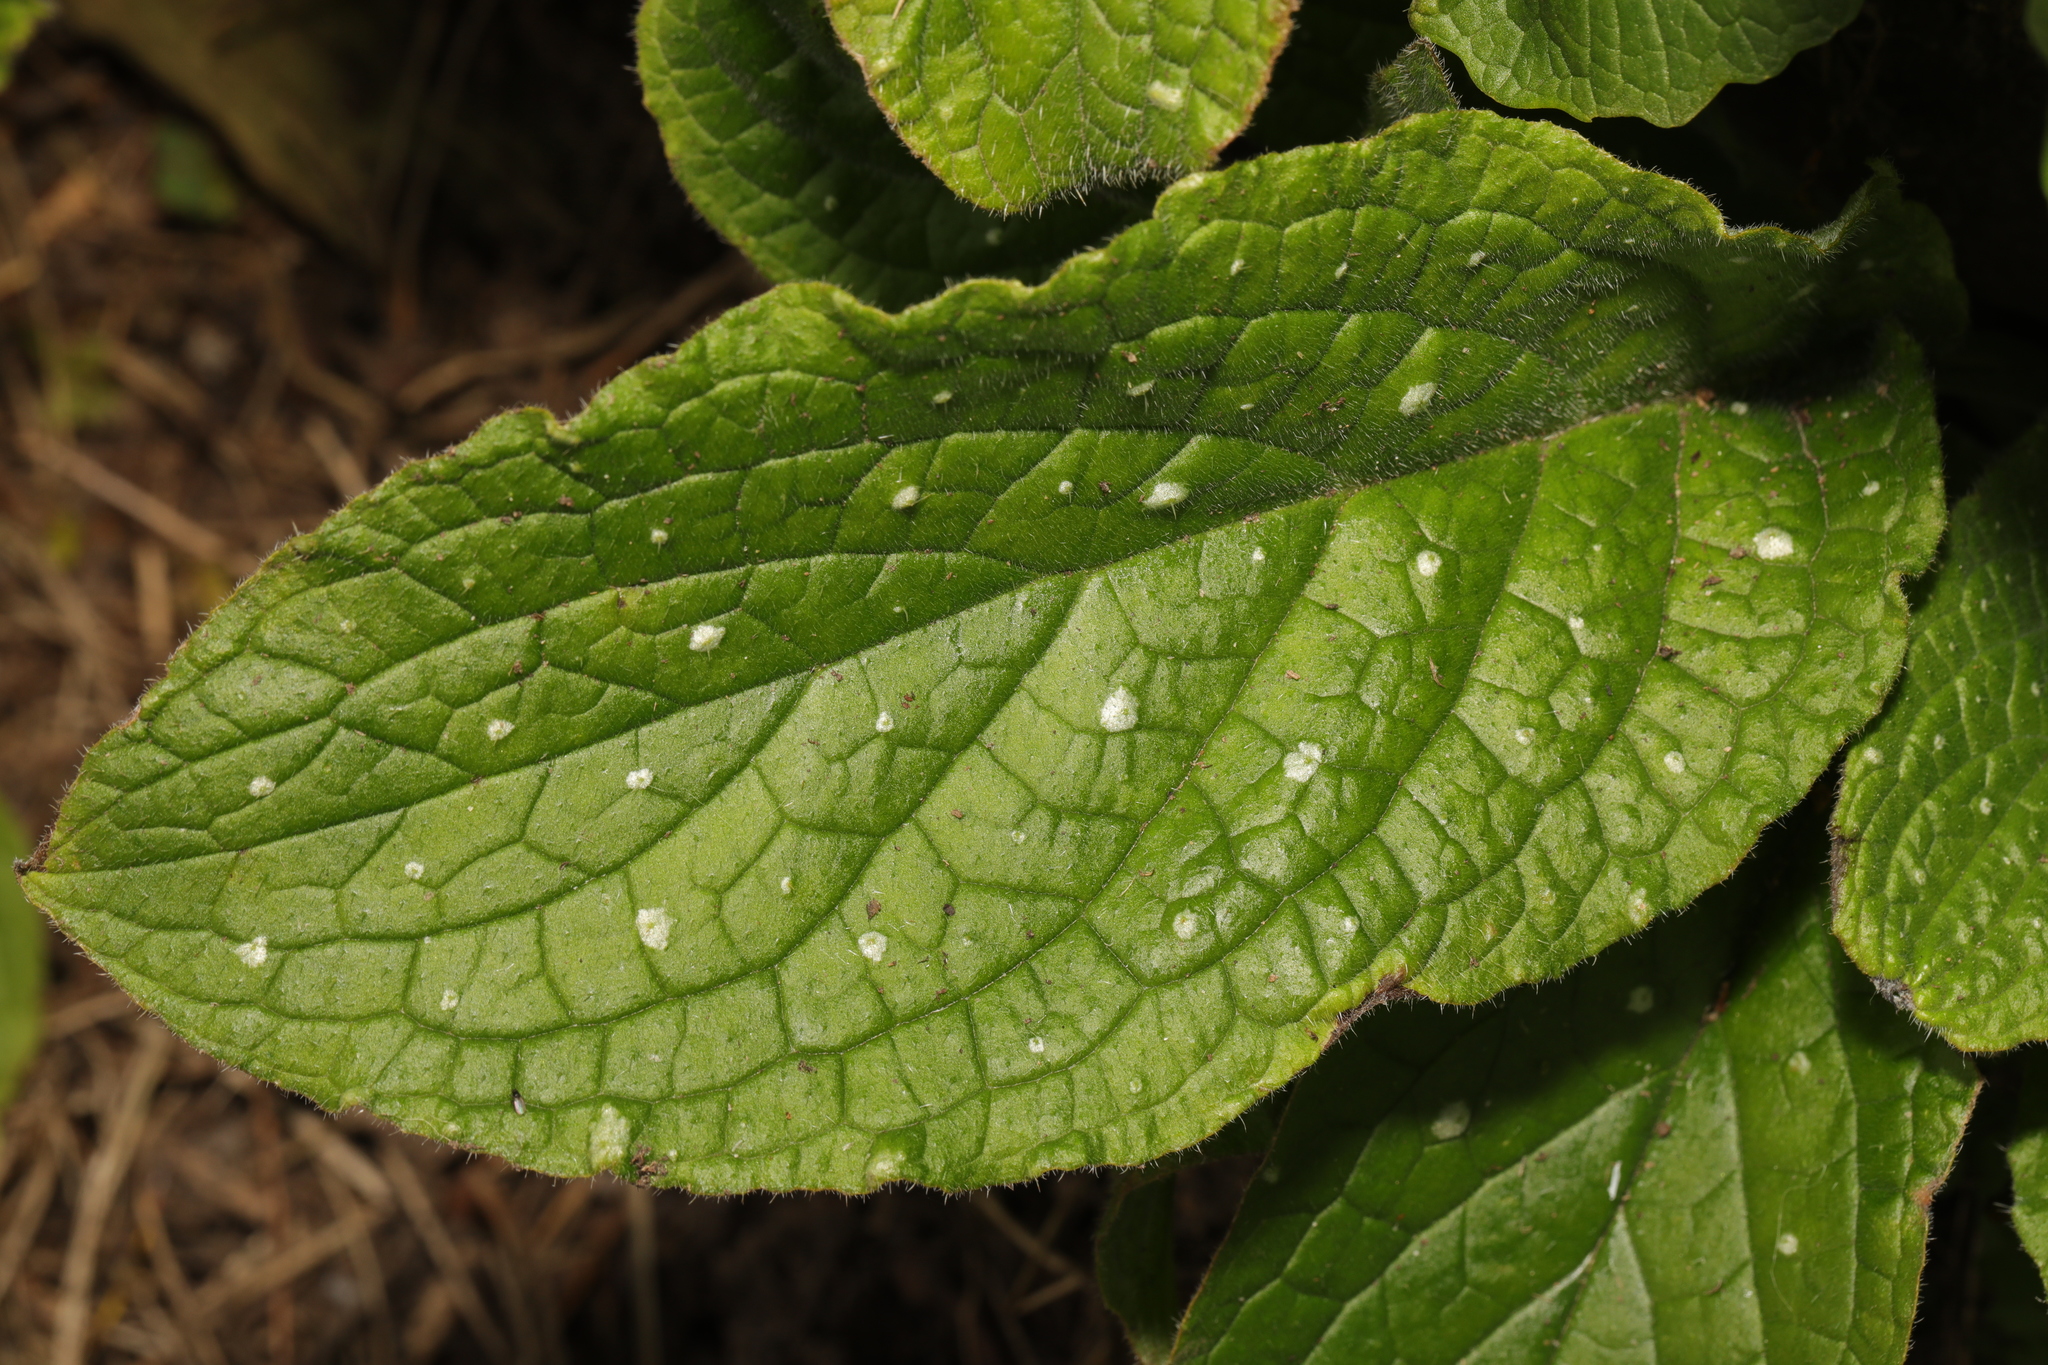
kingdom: Plantae
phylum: Tracheophyta
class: Magnoliopsida
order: Boraginales
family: Boraginaceae
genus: Pentaglottis
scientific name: Pentaglottis sempervirens
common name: Green alkanet
